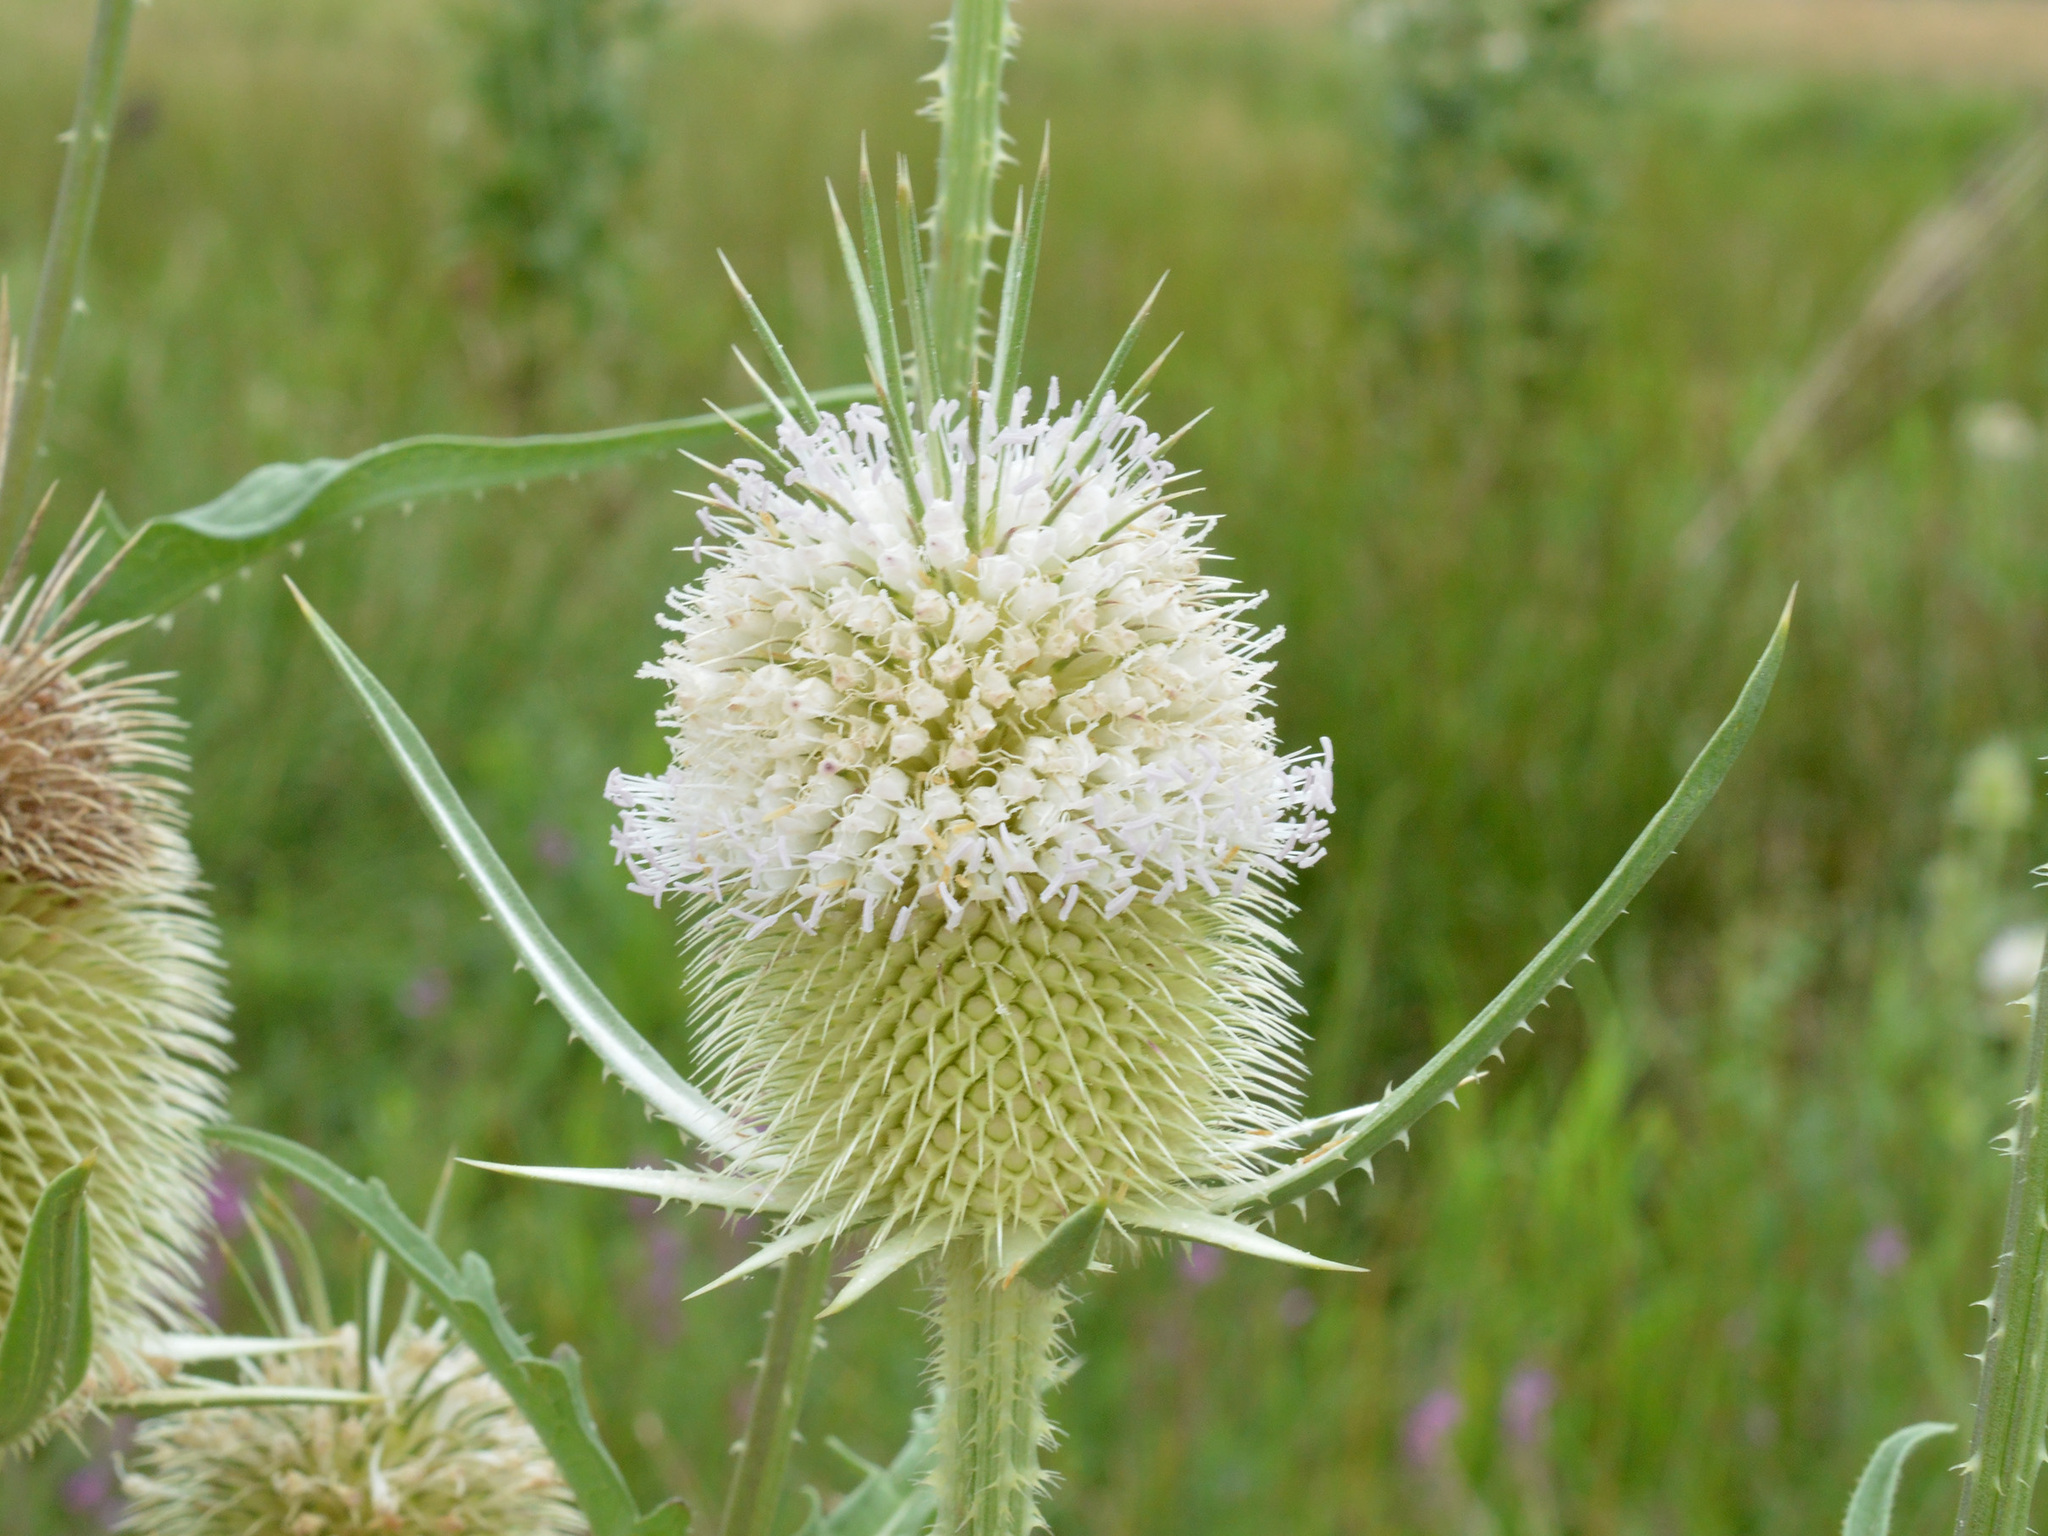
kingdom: Plantae
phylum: Tracheophyta
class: Magnoliopsida
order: Dipsacales
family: Caprifoliaceae
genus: Dipsacus
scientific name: Dipsacus laciniatus
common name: Cut-leaved teasel
